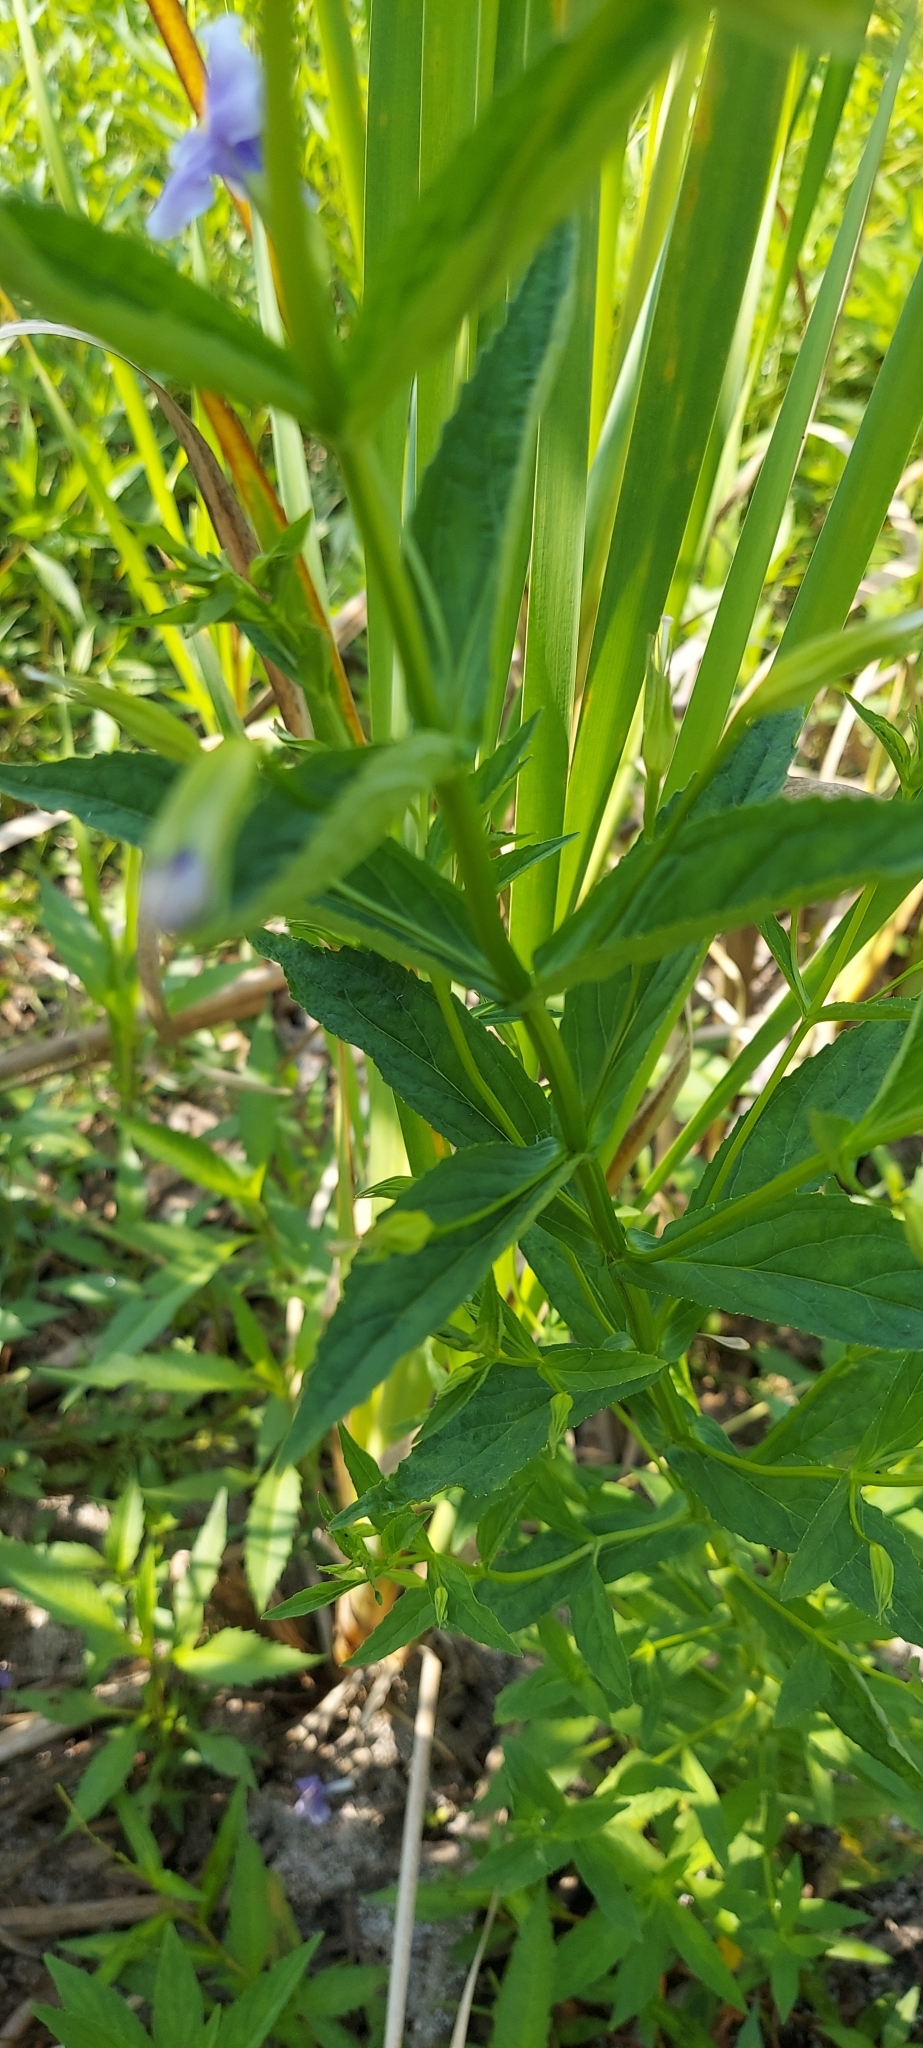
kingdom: Plantae
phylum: Tracheophyta
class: Magnoliopsida
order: Lamiales
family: Phrymaceae
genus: Mimulus
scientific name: Mimulus ringens
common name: Allegheny monkeyflower
